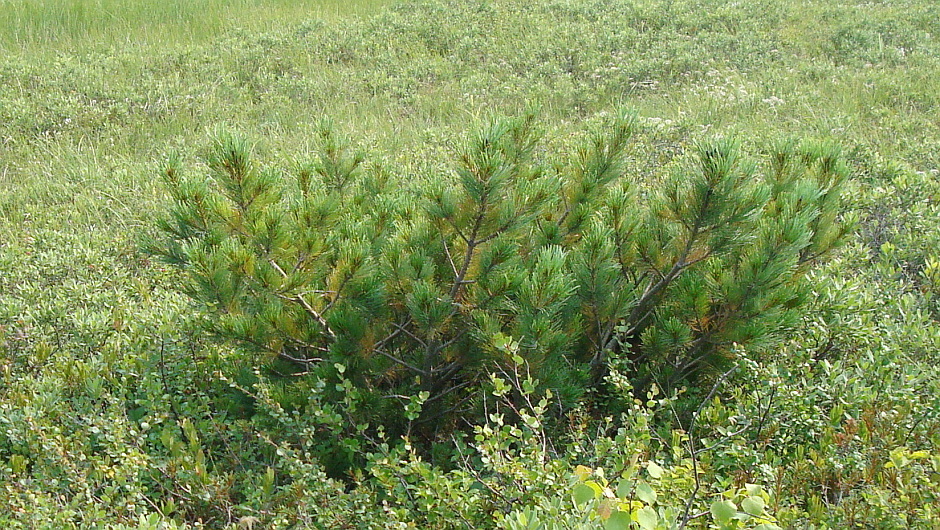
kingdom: Plantae
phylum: Tracheophyta
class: Pinopsida
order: Pinales
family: Pinaceae
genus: Pinus
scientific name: Pinus pumila
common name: Dwarf siberian pine
